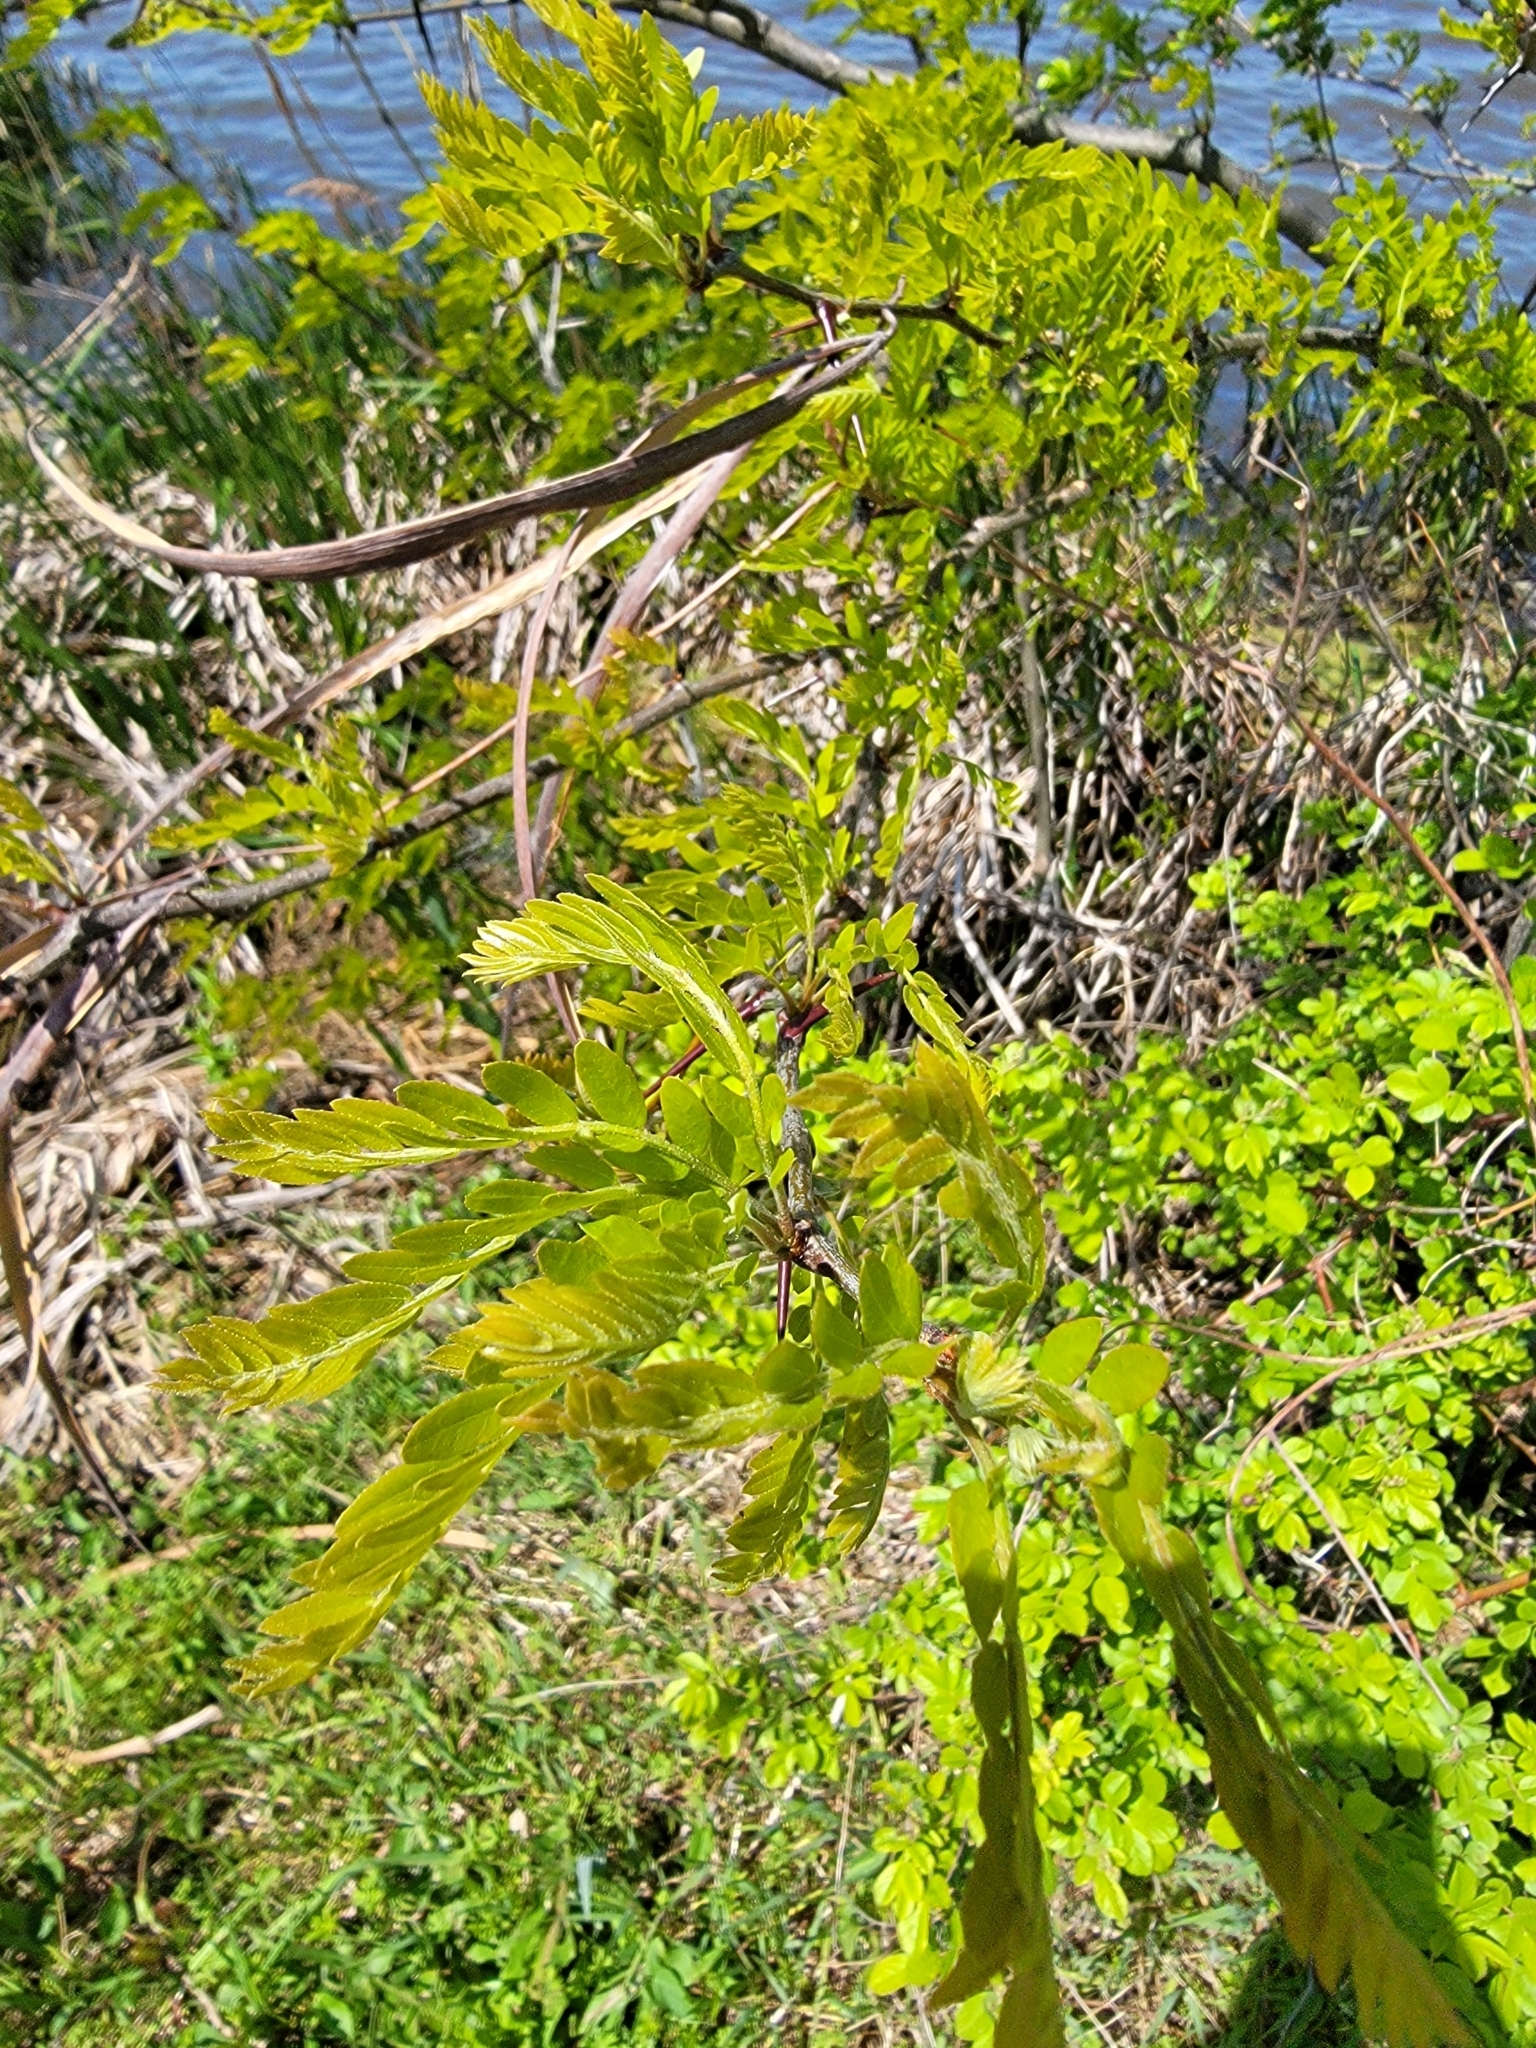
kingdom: Plantae
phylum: Tracheophyta
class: Magnoliopsida
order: Fabales
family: Fabaceae
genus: Gleditsia
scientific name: Gleditsia triacanthos
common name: Common honeylocust
